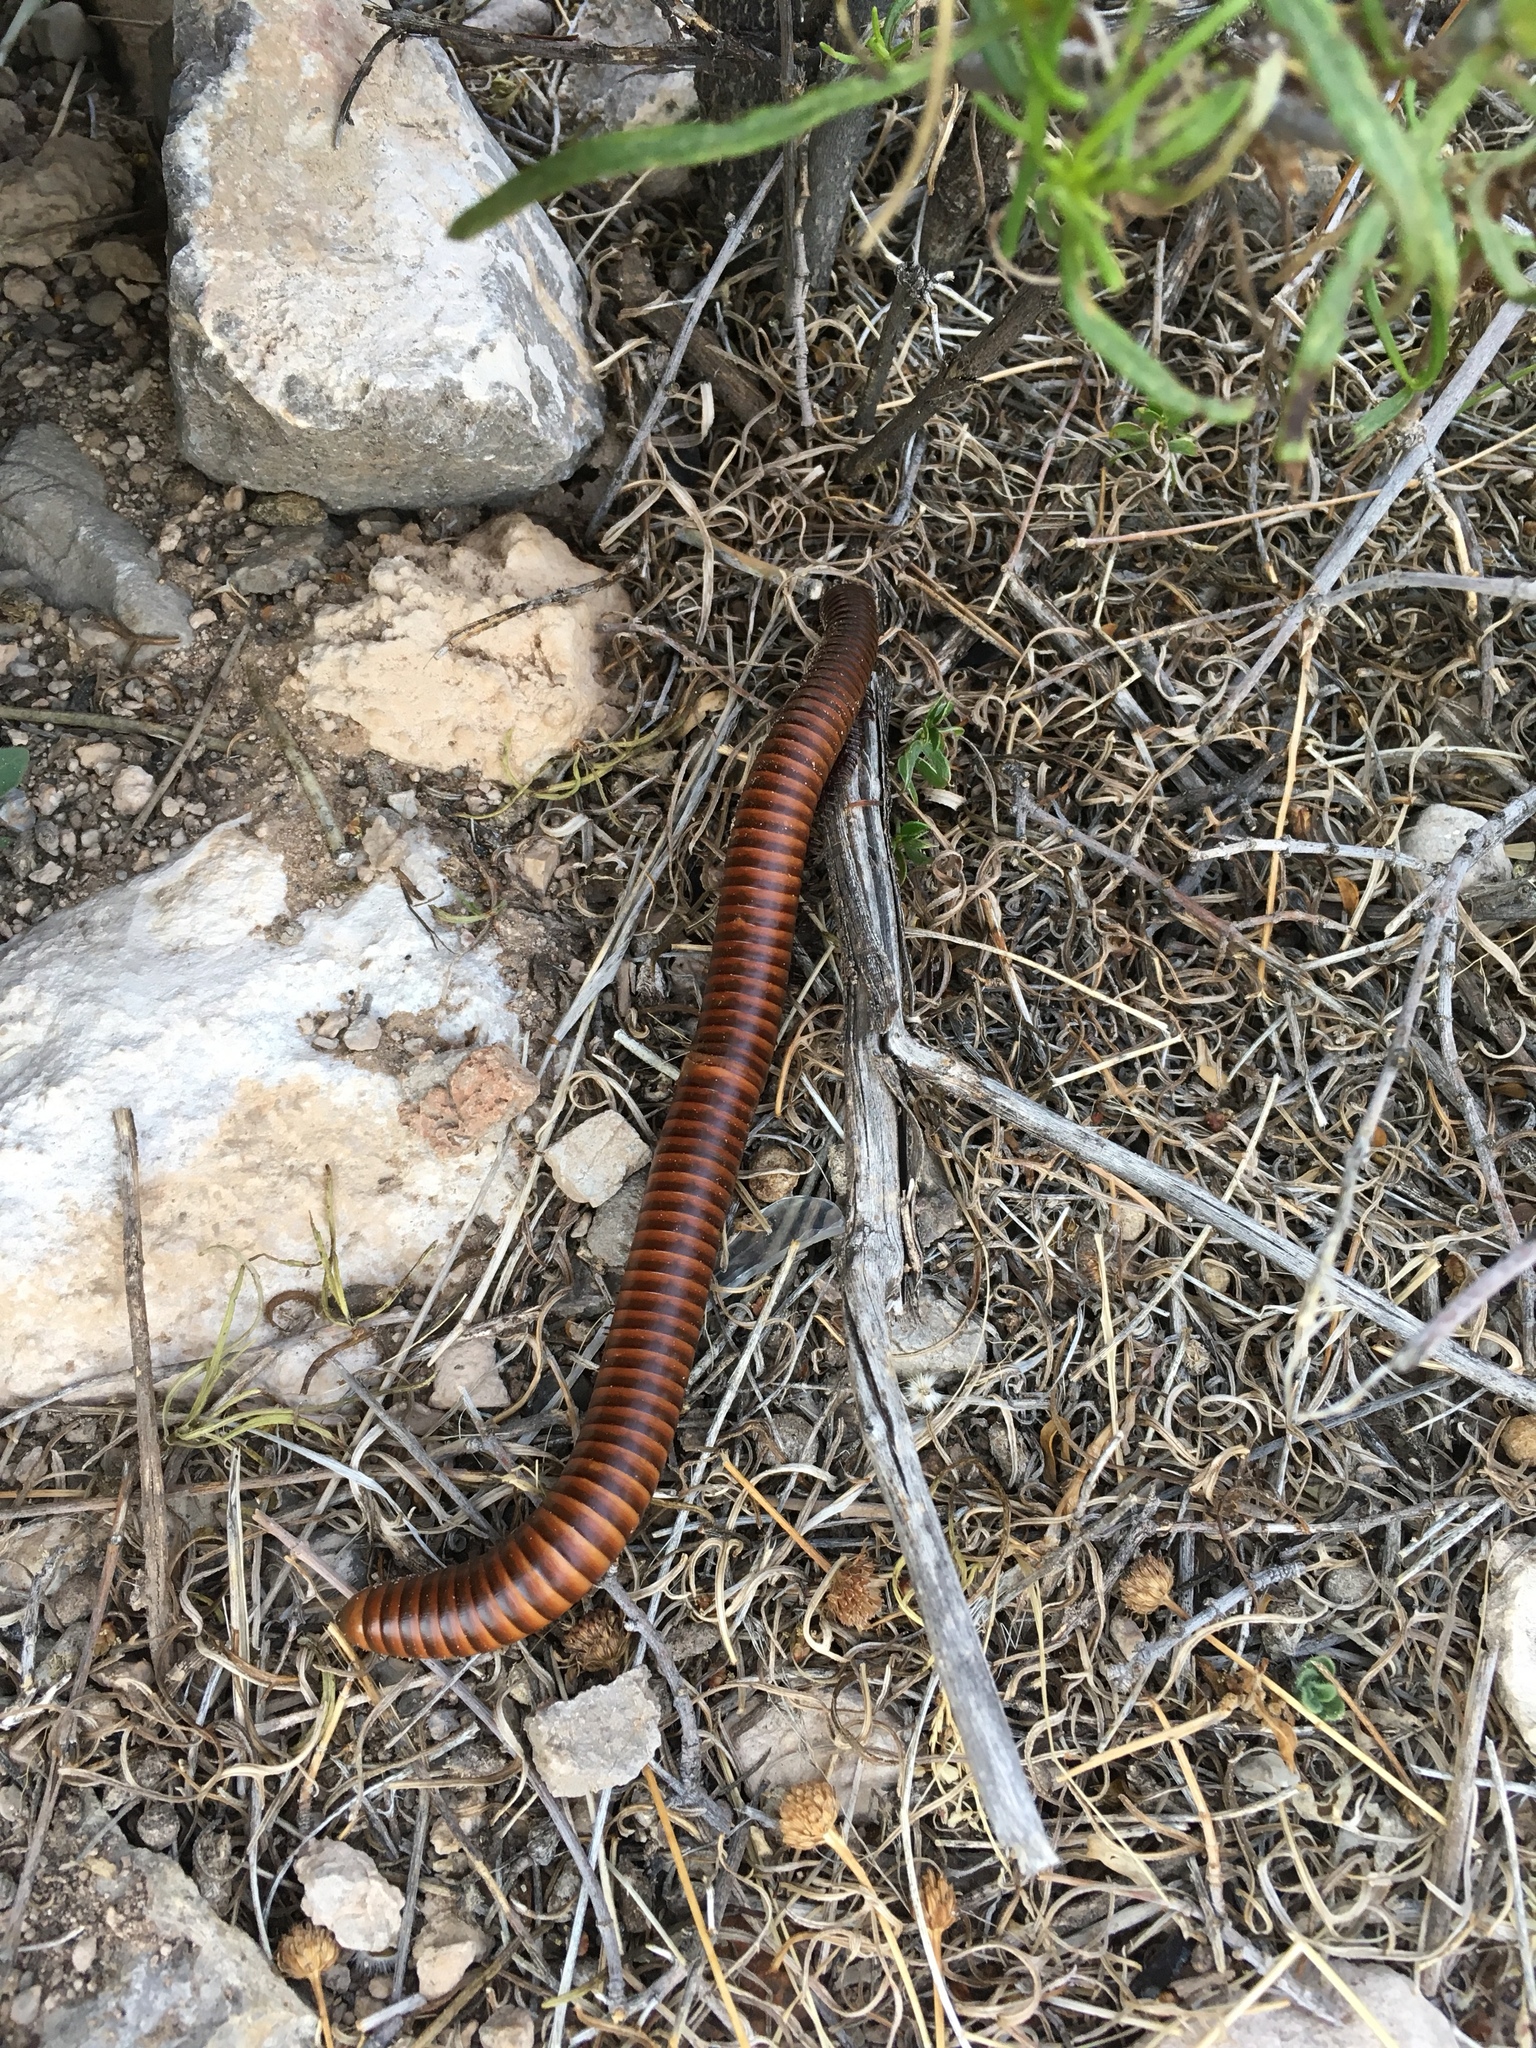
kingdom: Animalia
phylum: Arthropoda
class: Diplopoda
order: Spirostreptida
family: Spirostreptidae
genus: Orthoporus
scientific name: Orthoporus ornatus
